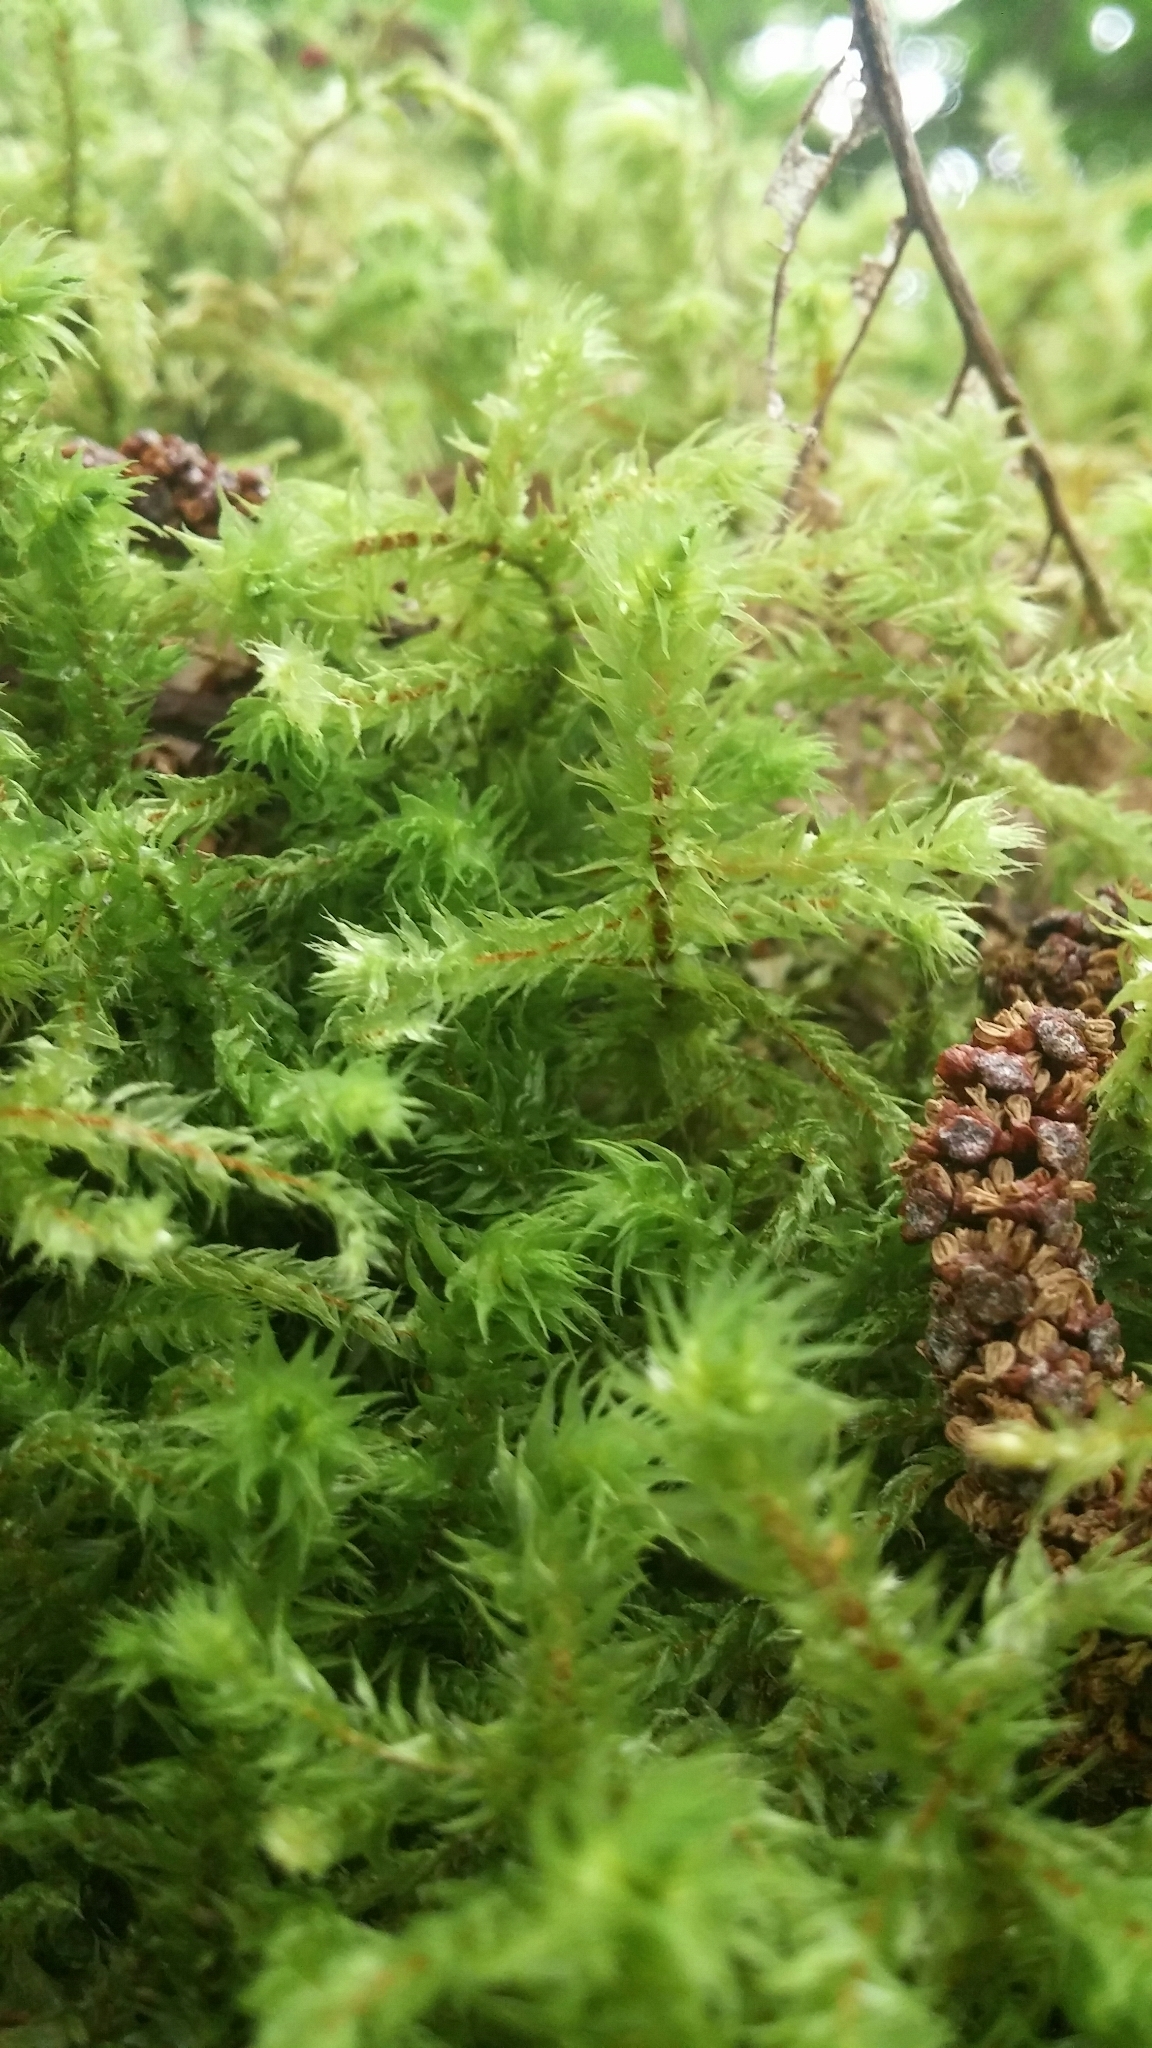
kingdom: Plantae
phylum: Bryophyta
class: Bryopsida
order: Hypnales
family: Hylocomiaceae
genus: Hylocomiadelphus
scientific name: Hylocomiadelphus triquetrus
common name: Rough goose neck moss
